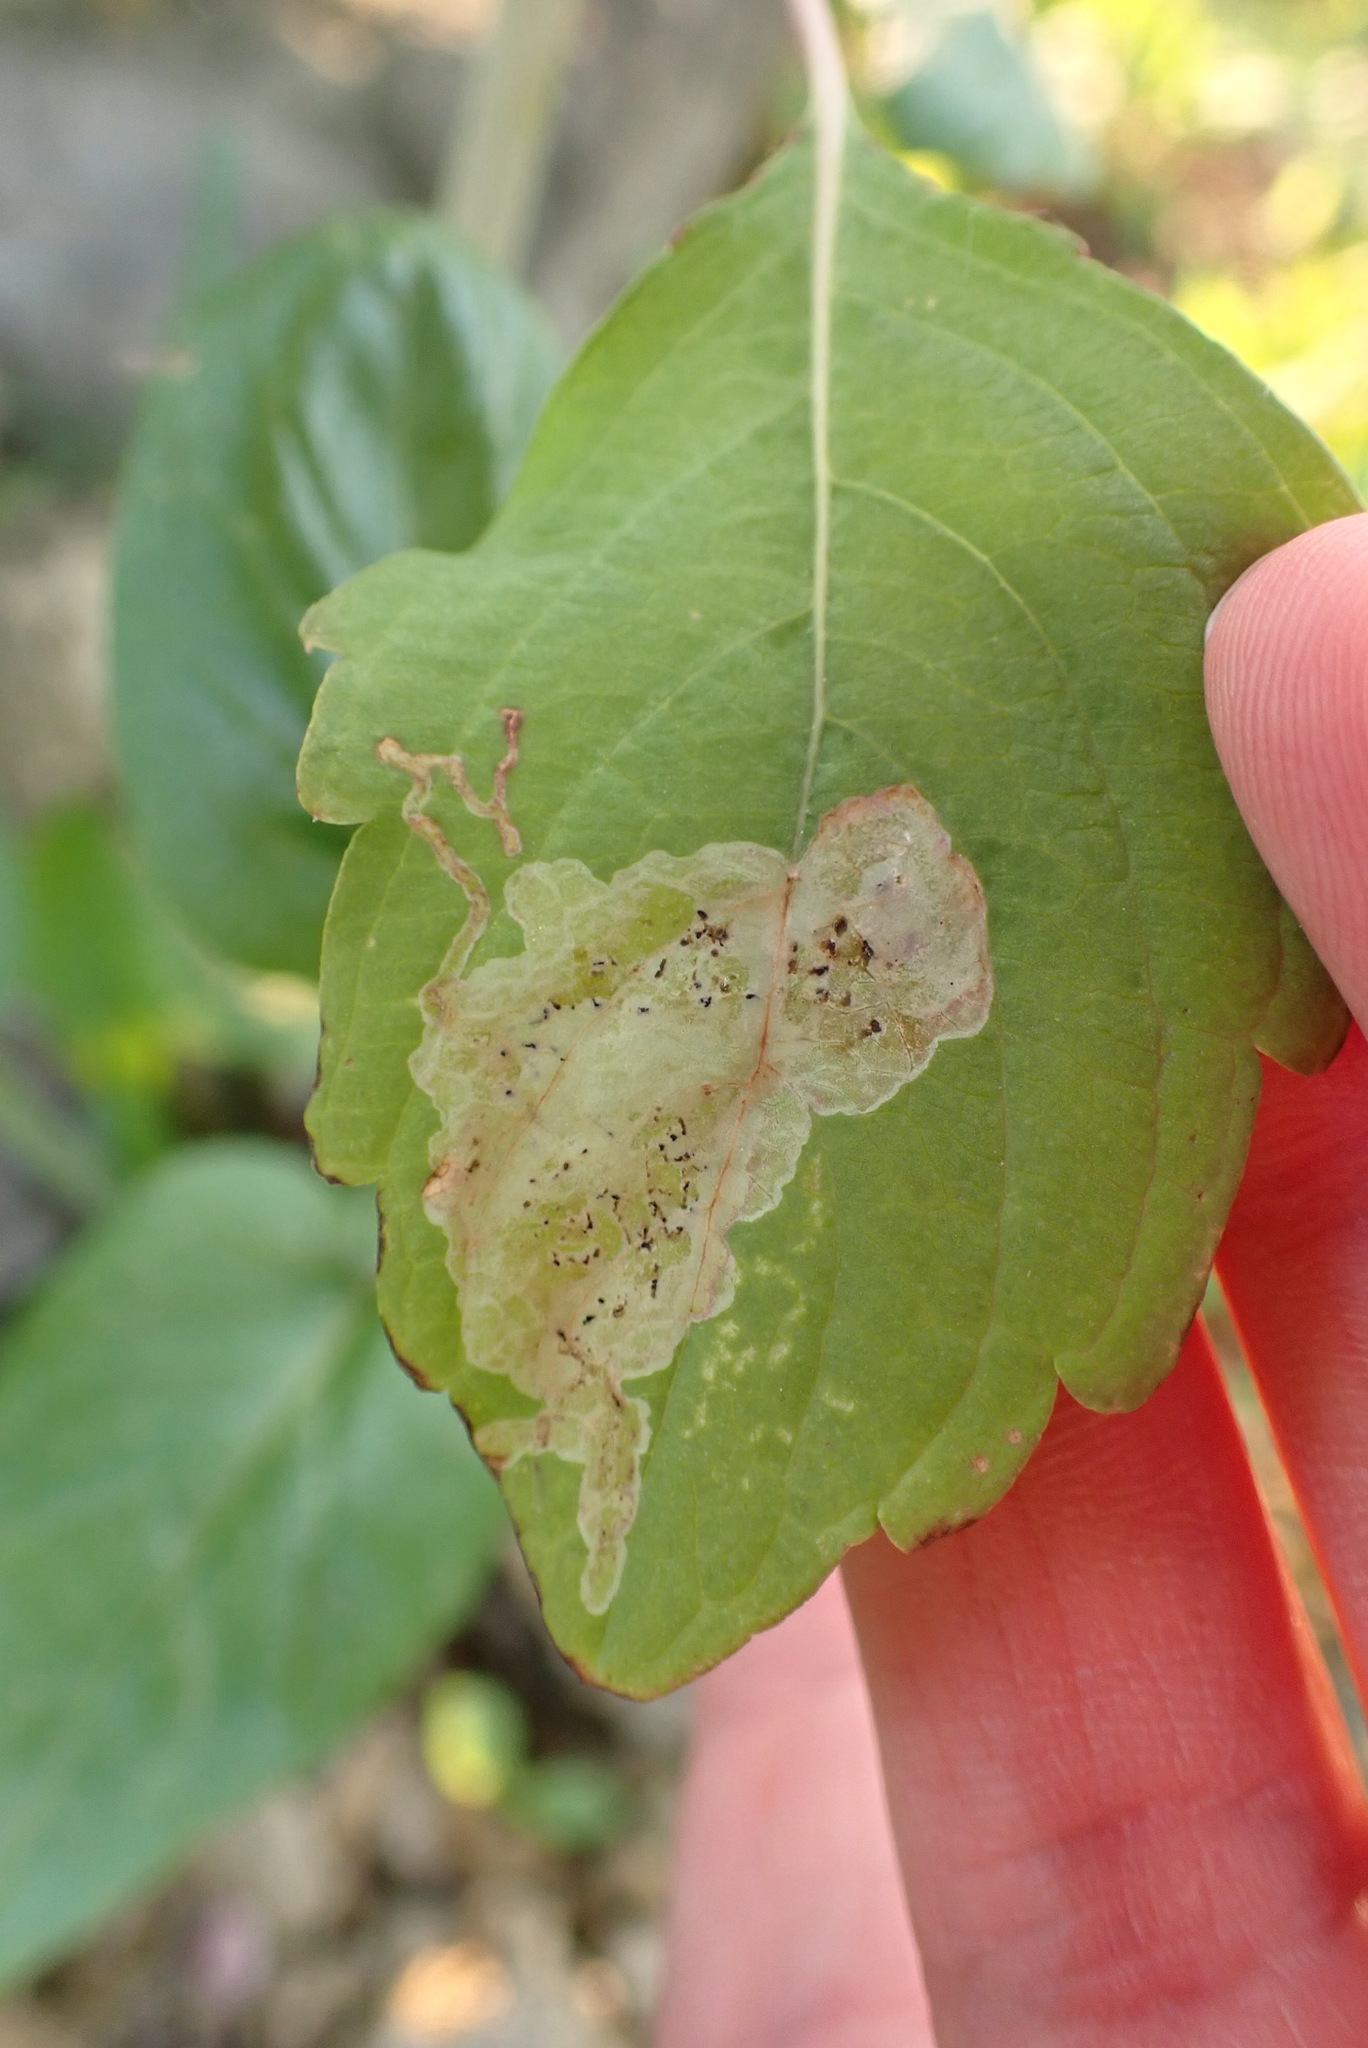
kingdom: Animalia
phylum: Arthropoda
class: Insecta
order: Diptera
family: Agromyzidae
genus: Phytoliriomyza
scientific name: Phytoliriomyza melampyga
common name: Jewelweed leaf-miner fly
